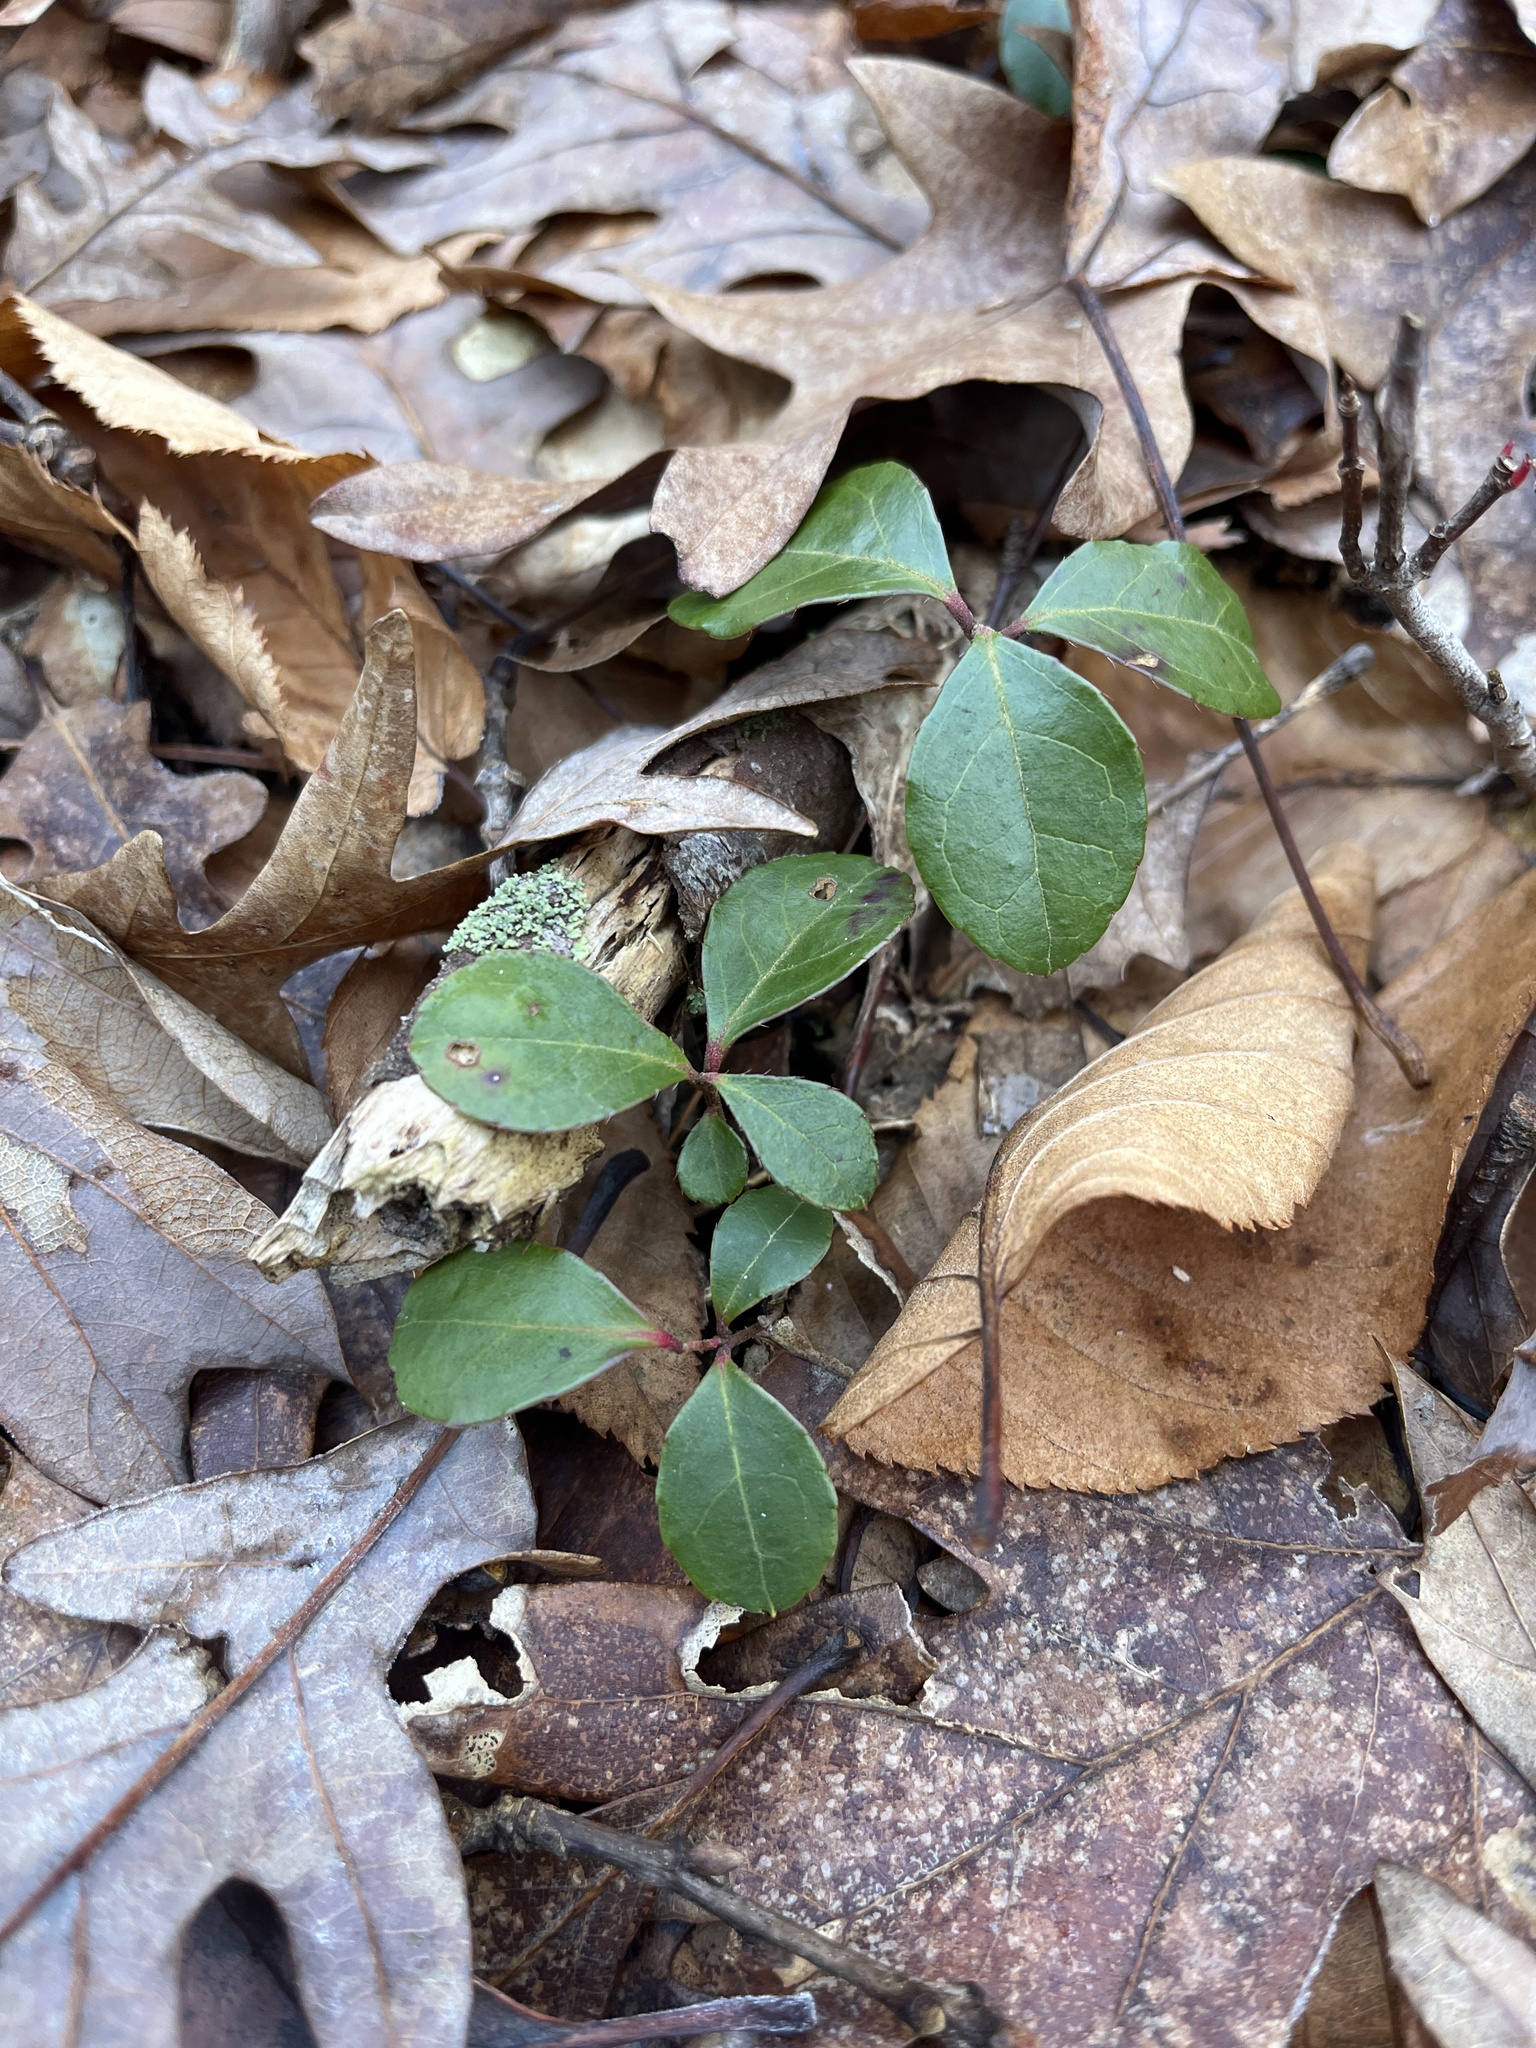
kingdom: Plantae
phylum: Tracheophyta
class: Magnoliopsida
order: Ericales
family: Ericaceae
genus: Gaultheria
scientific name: Gaultheria procumbens
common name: Checkerberry
